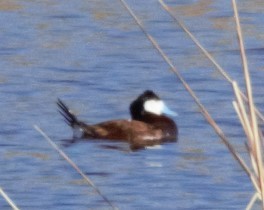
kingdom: Animalia
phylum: Chordata
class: Aves
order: Anseriformes
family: Anatidae
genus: Oxyura
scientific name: Oxyura jamaicensis
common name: Ruddy duck
